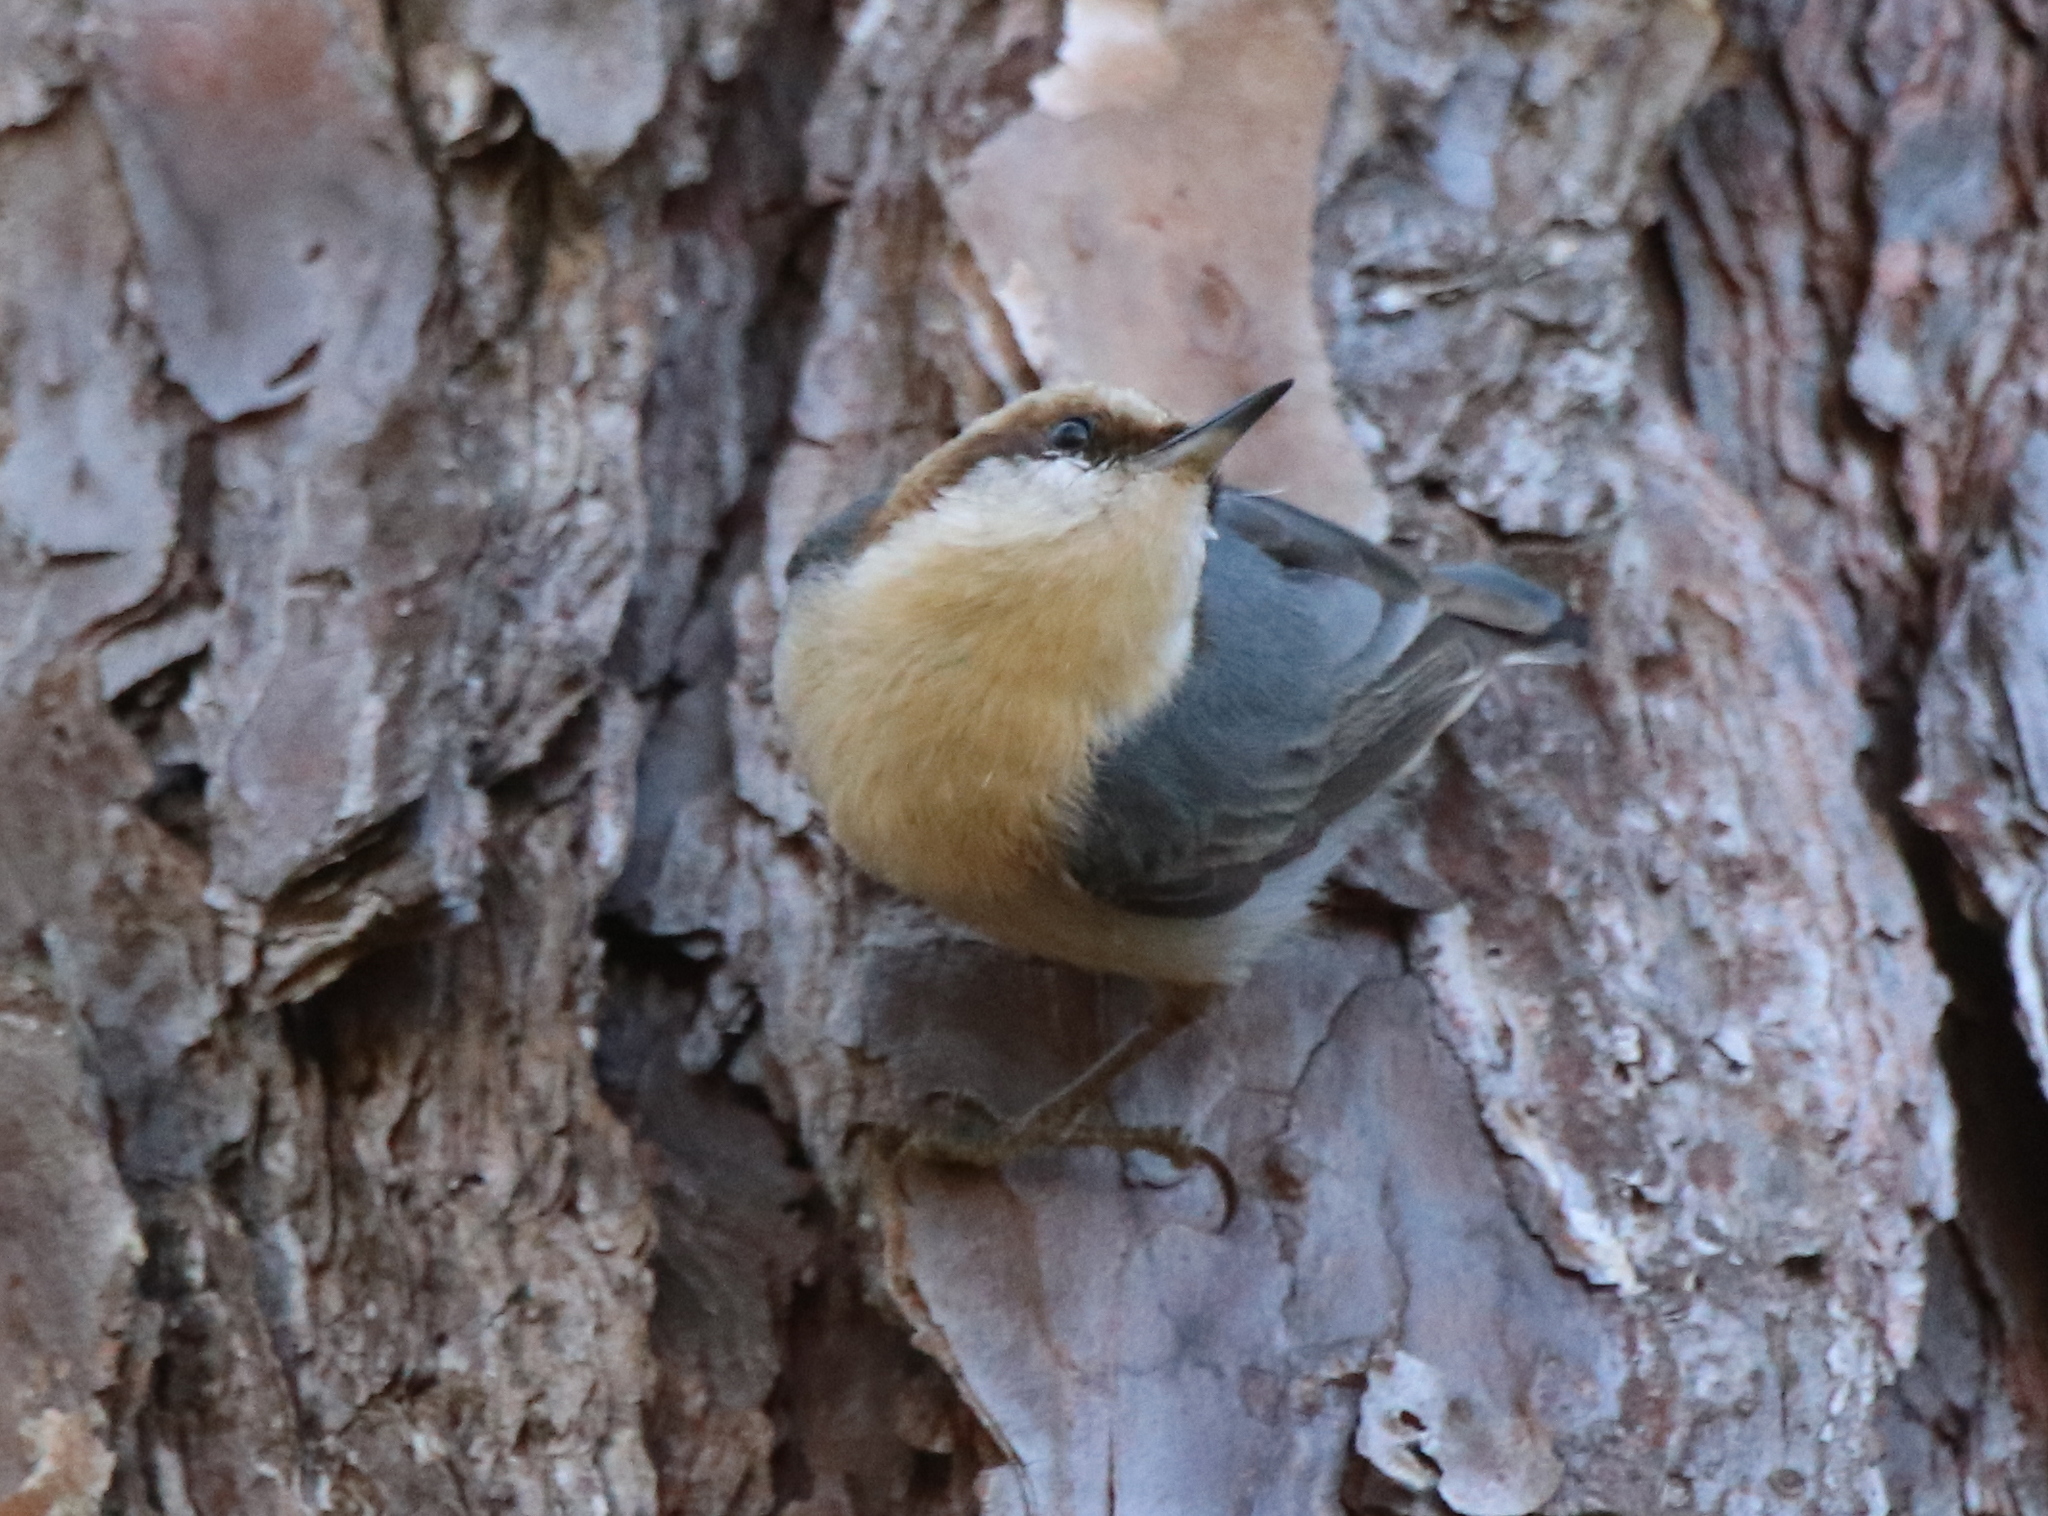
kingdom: Animalia
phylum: Chordata
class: Aves
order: Passeriformes
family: Sittidae
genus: Sitta
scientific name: Sitta pusilla
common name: Brown-headed nuthatch
